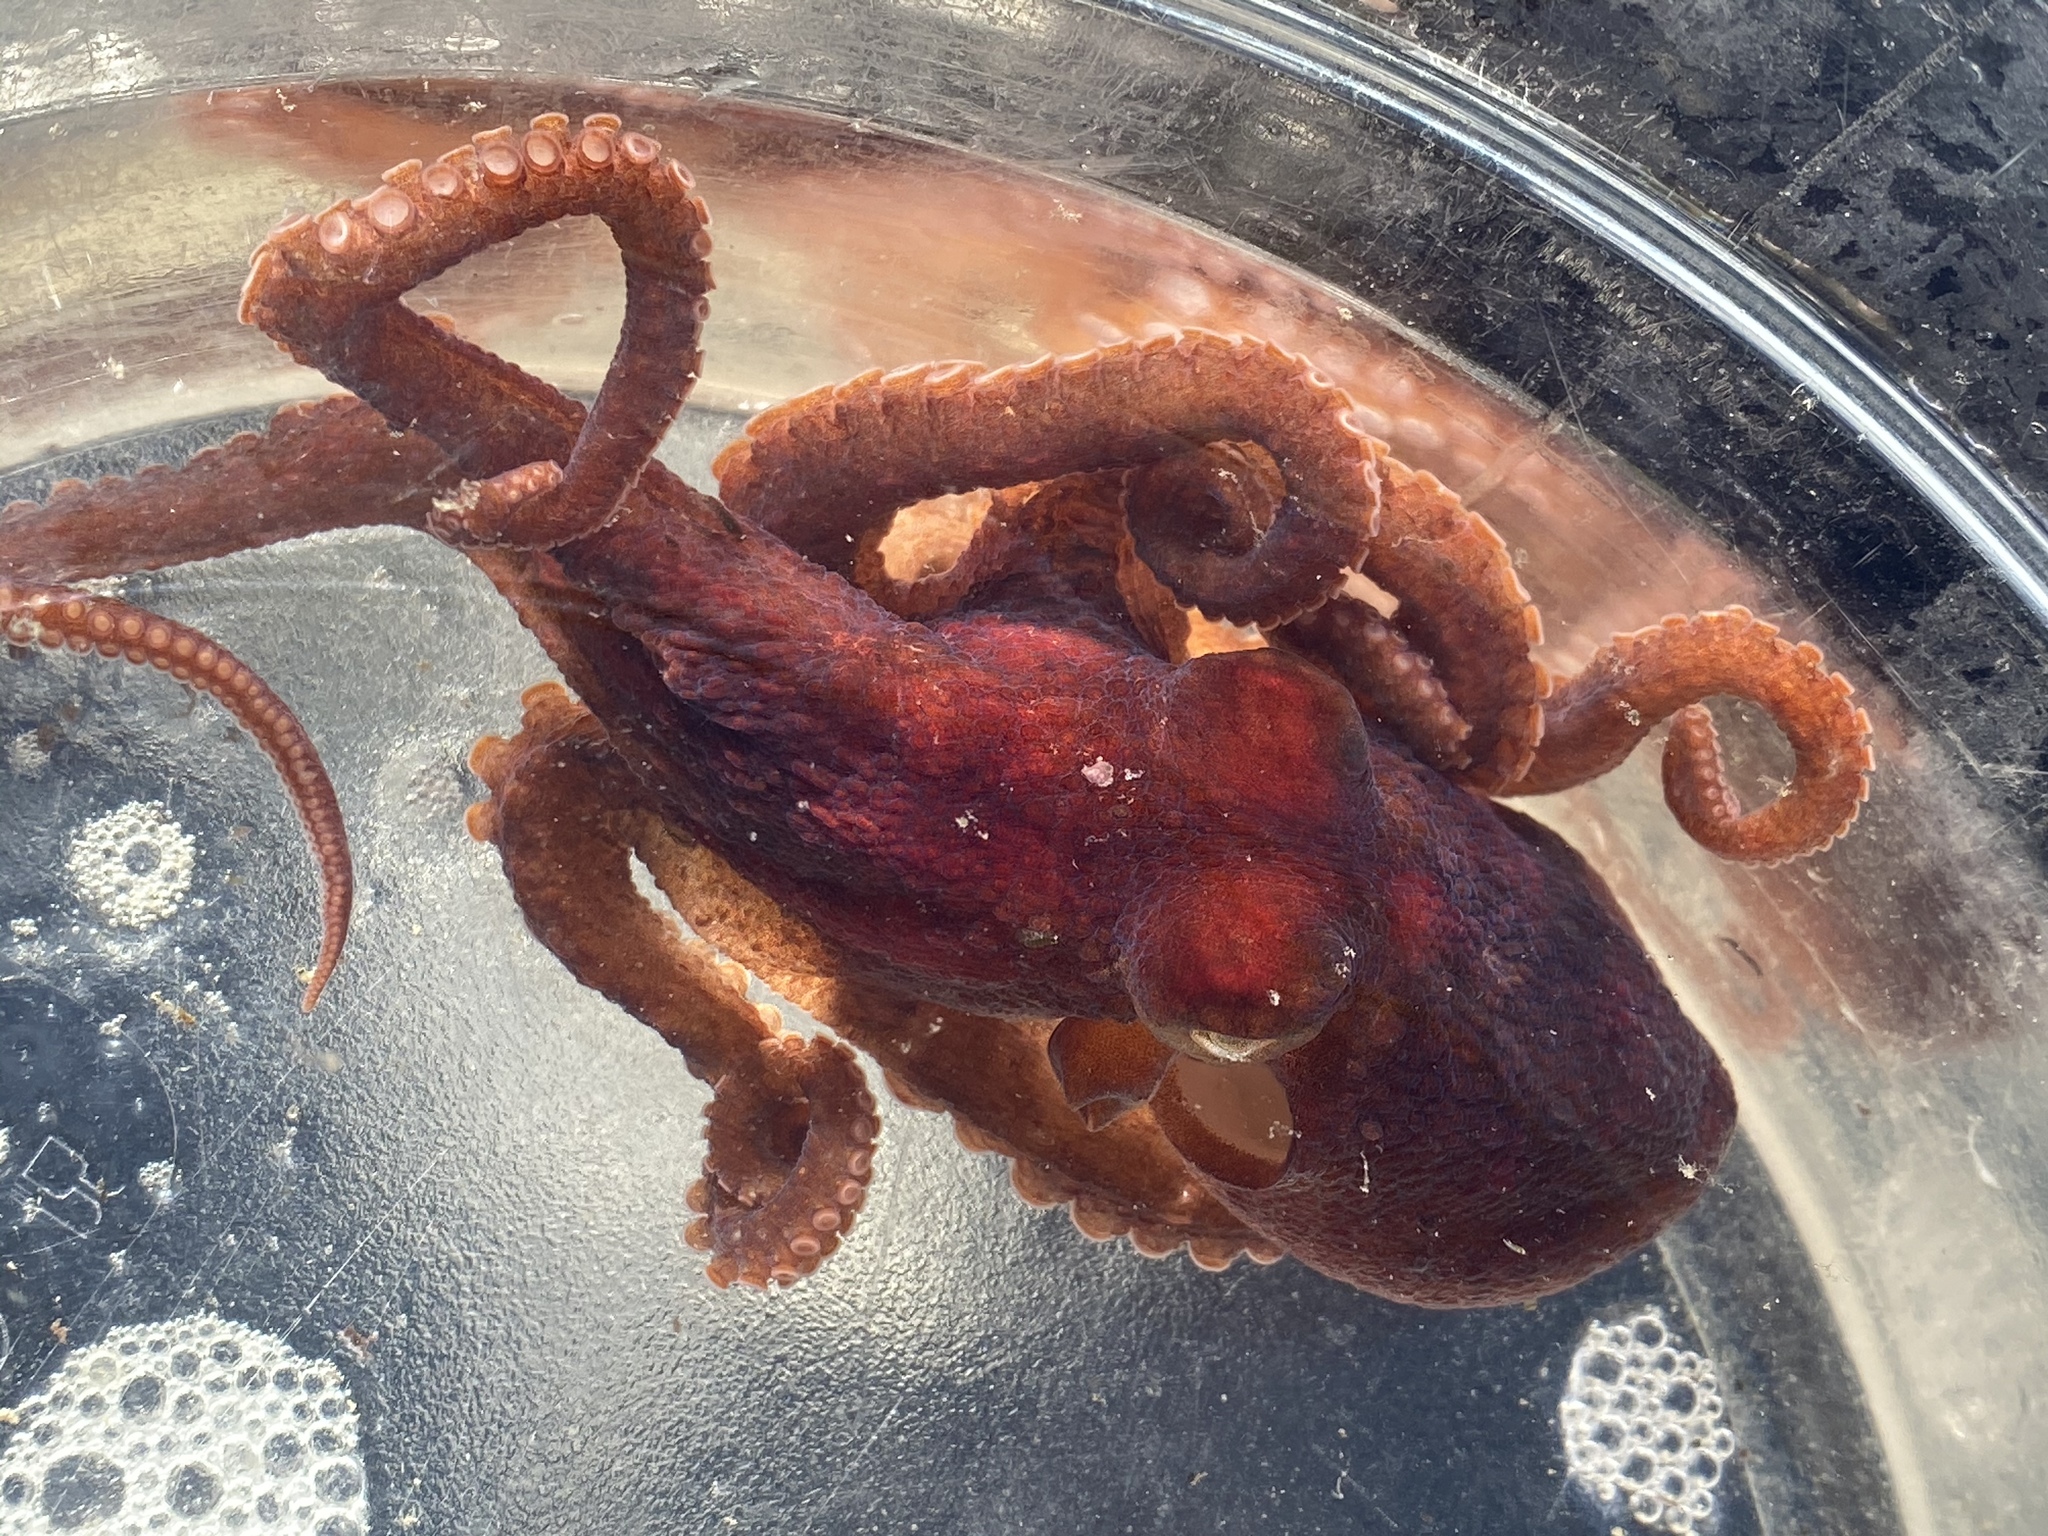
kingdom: Animalia
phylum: Mollusca
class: Cephalopoda
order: Octopoda
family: Octopodidae
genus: Octopus
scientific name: Octopus rubescens
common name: East pacific red octopus
